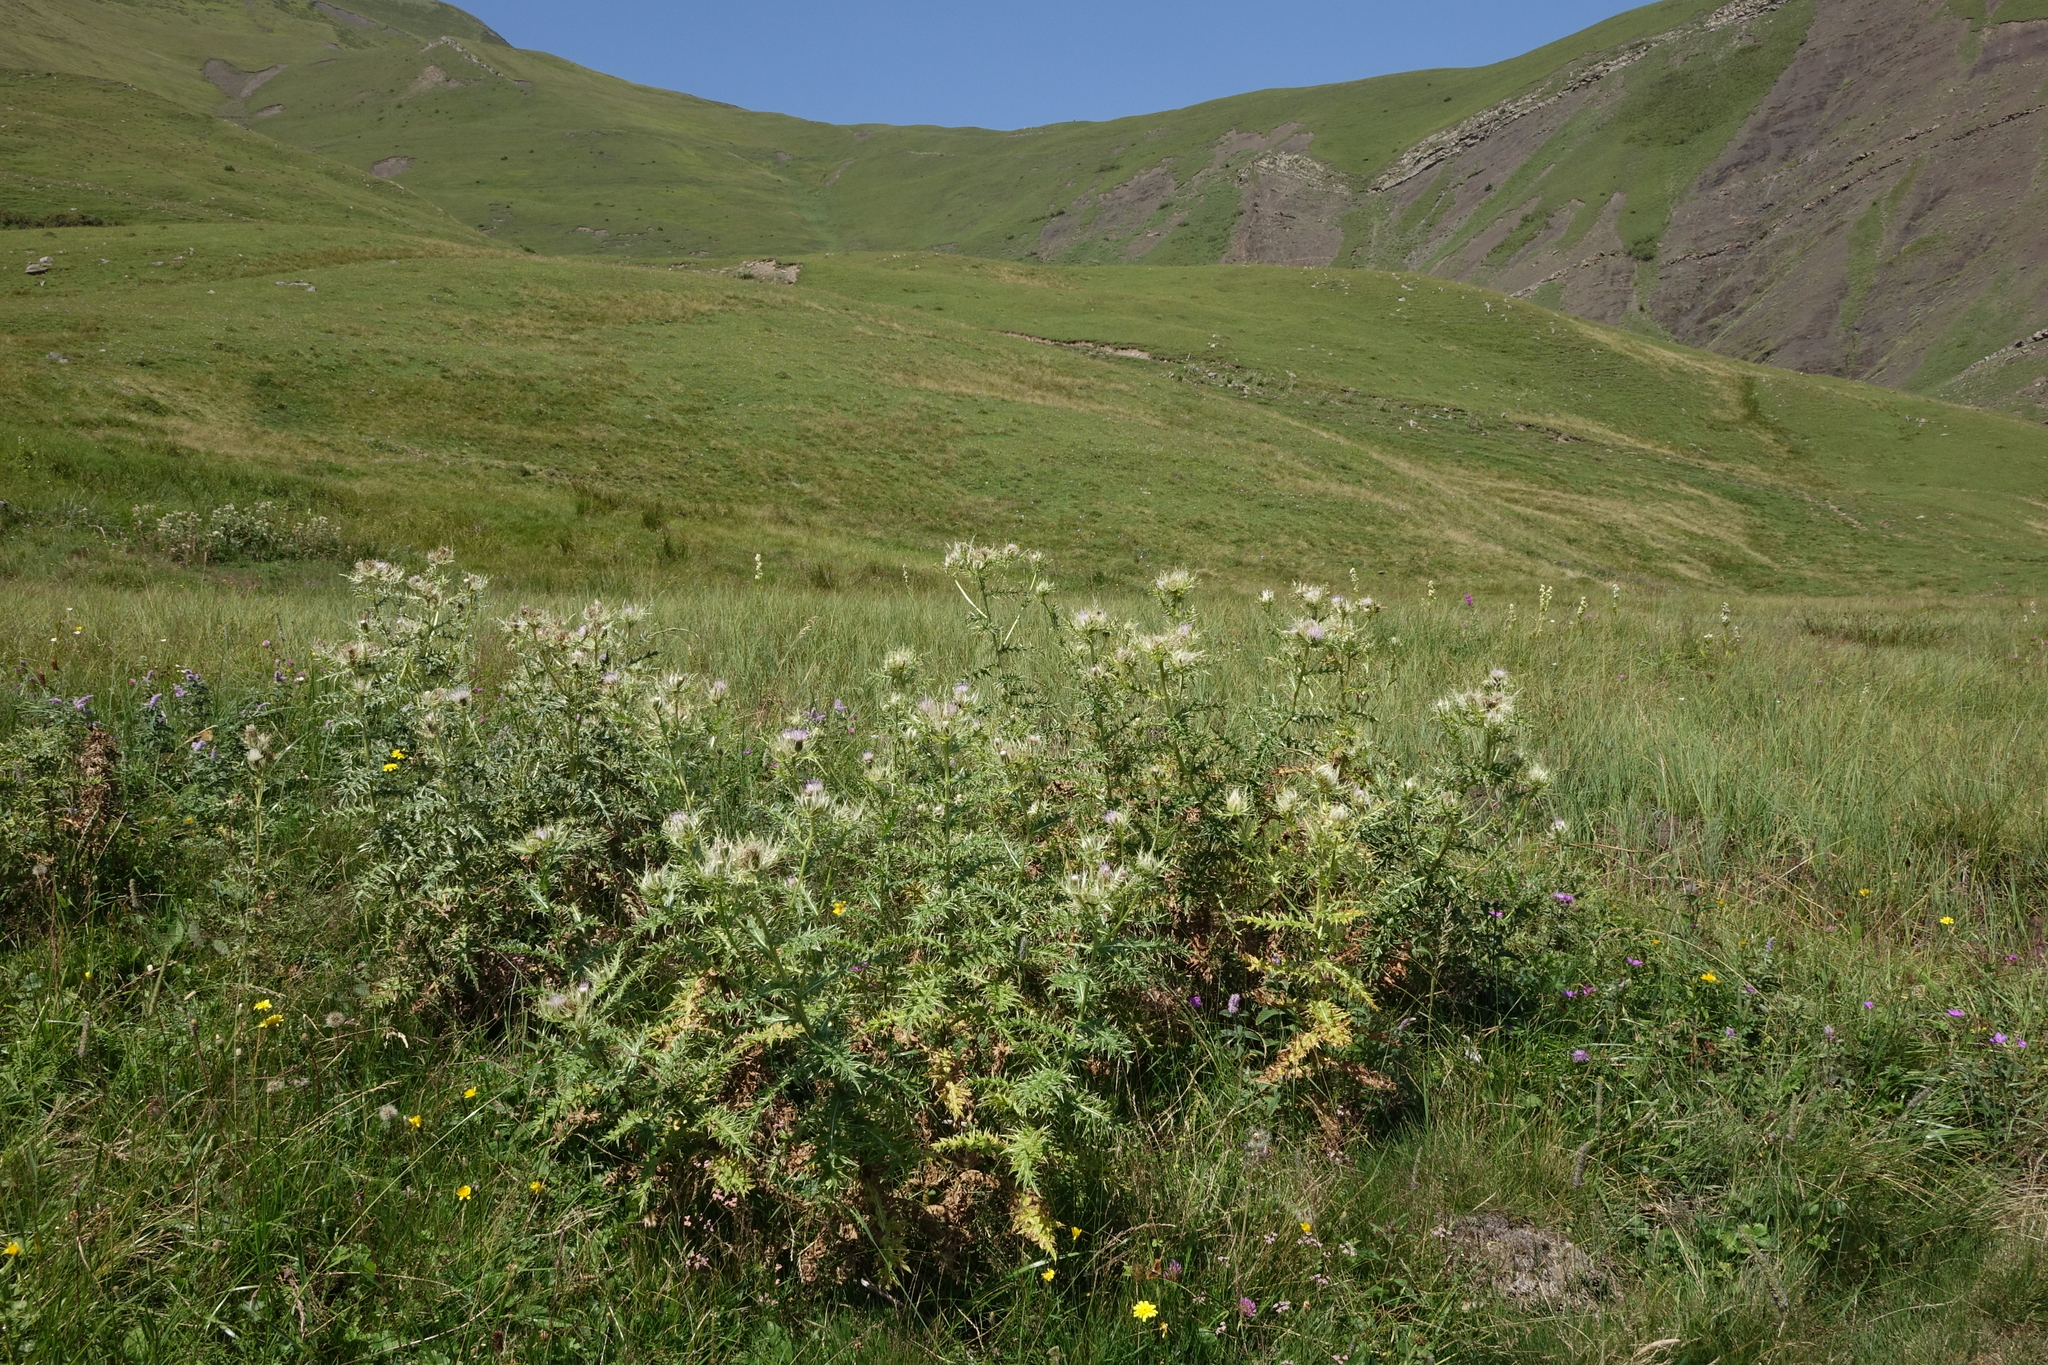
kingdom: Plantae
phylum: Tracheophyta
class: Magnoliopsida
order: Asterales
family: Asteraceae
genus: Cirsium
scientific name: Cirsium obvallatum
